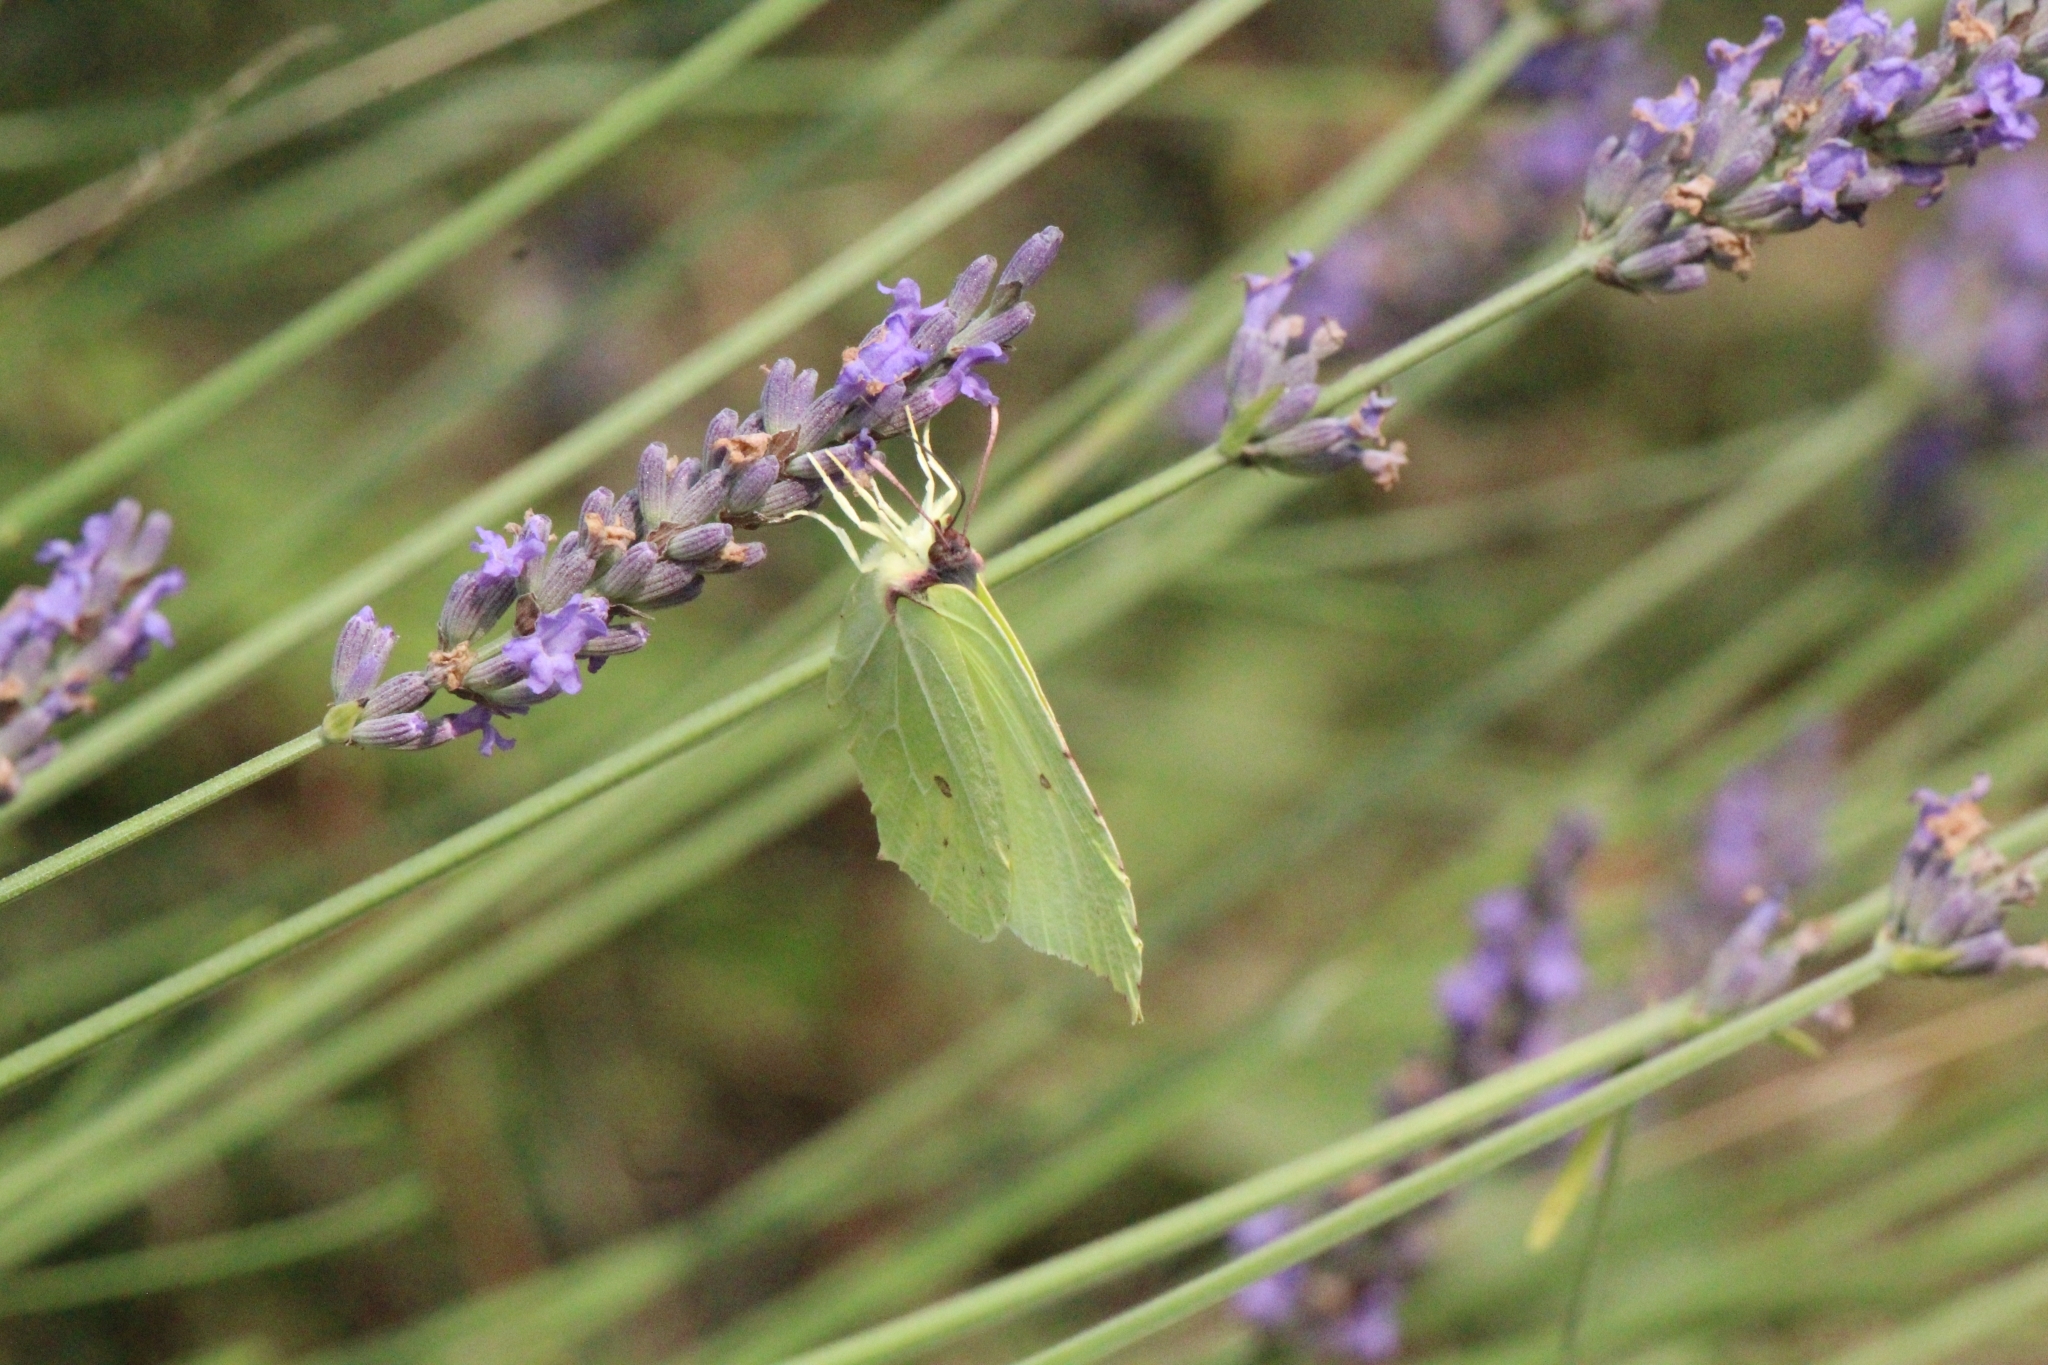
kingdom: Animalia
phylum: Arthropoda
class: Insecta
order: Lepidoptera
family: Pieridae
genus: Gonepteryx
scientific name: Gonepteryx rhamni
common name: Brimstone
